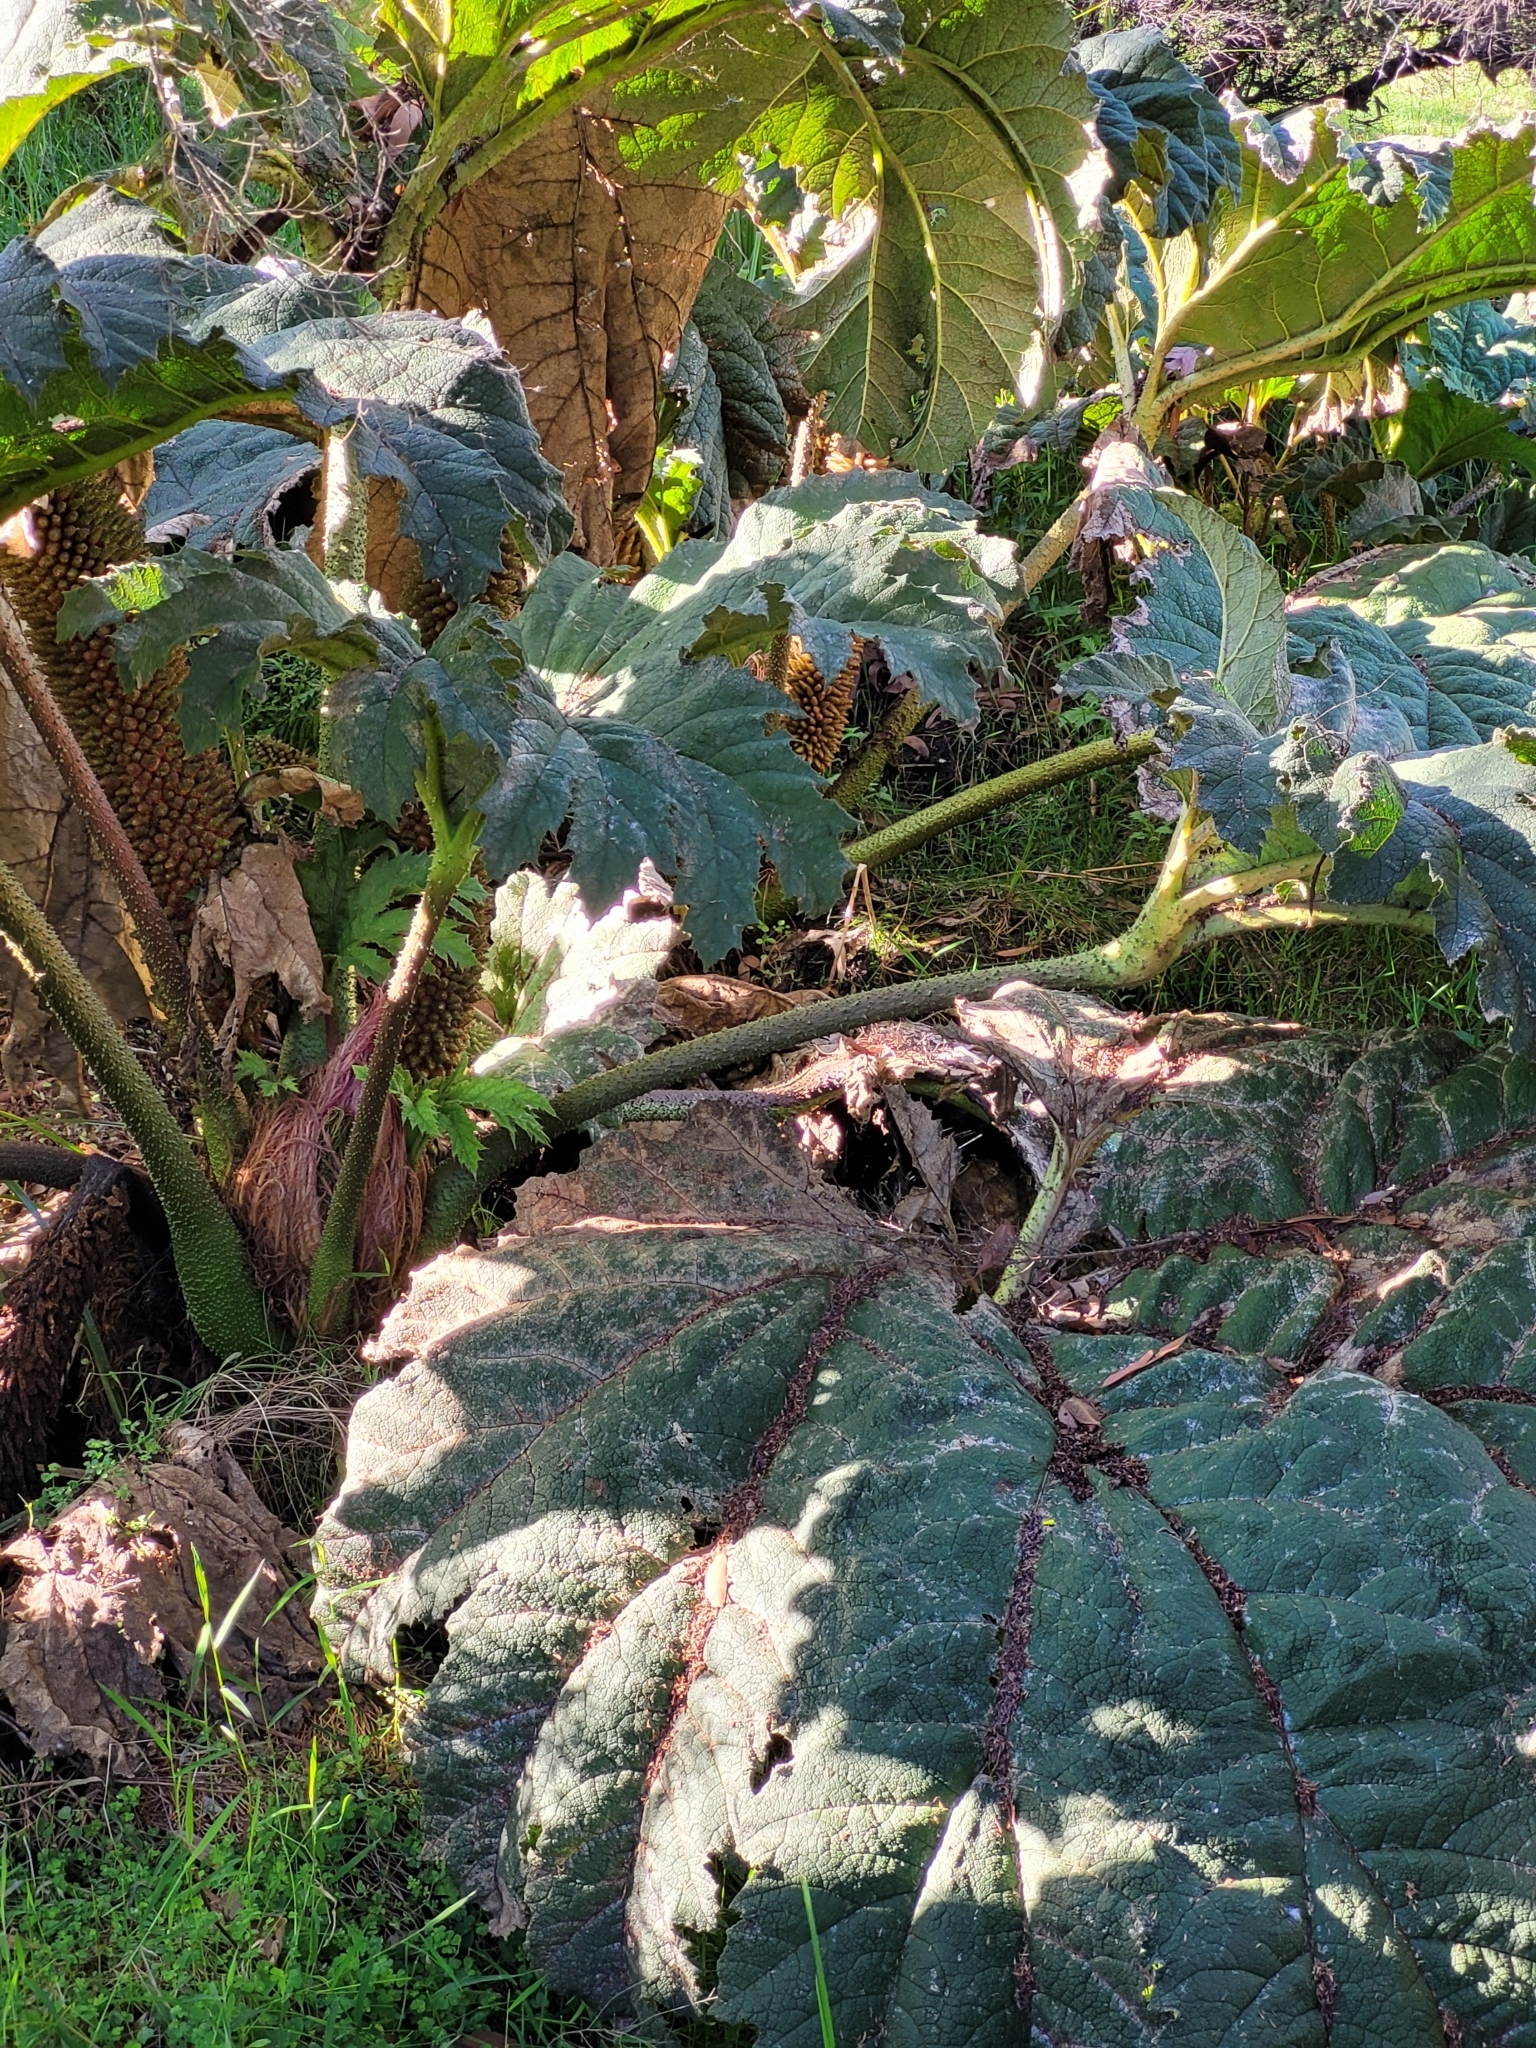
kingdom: Plantae
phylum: Tracheophyta
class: Magnoliopsida
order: Gunnerales
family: Gunneraceae
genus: Gunnera
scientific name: Gunnera tinctoria
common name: Giant-rhubarb
